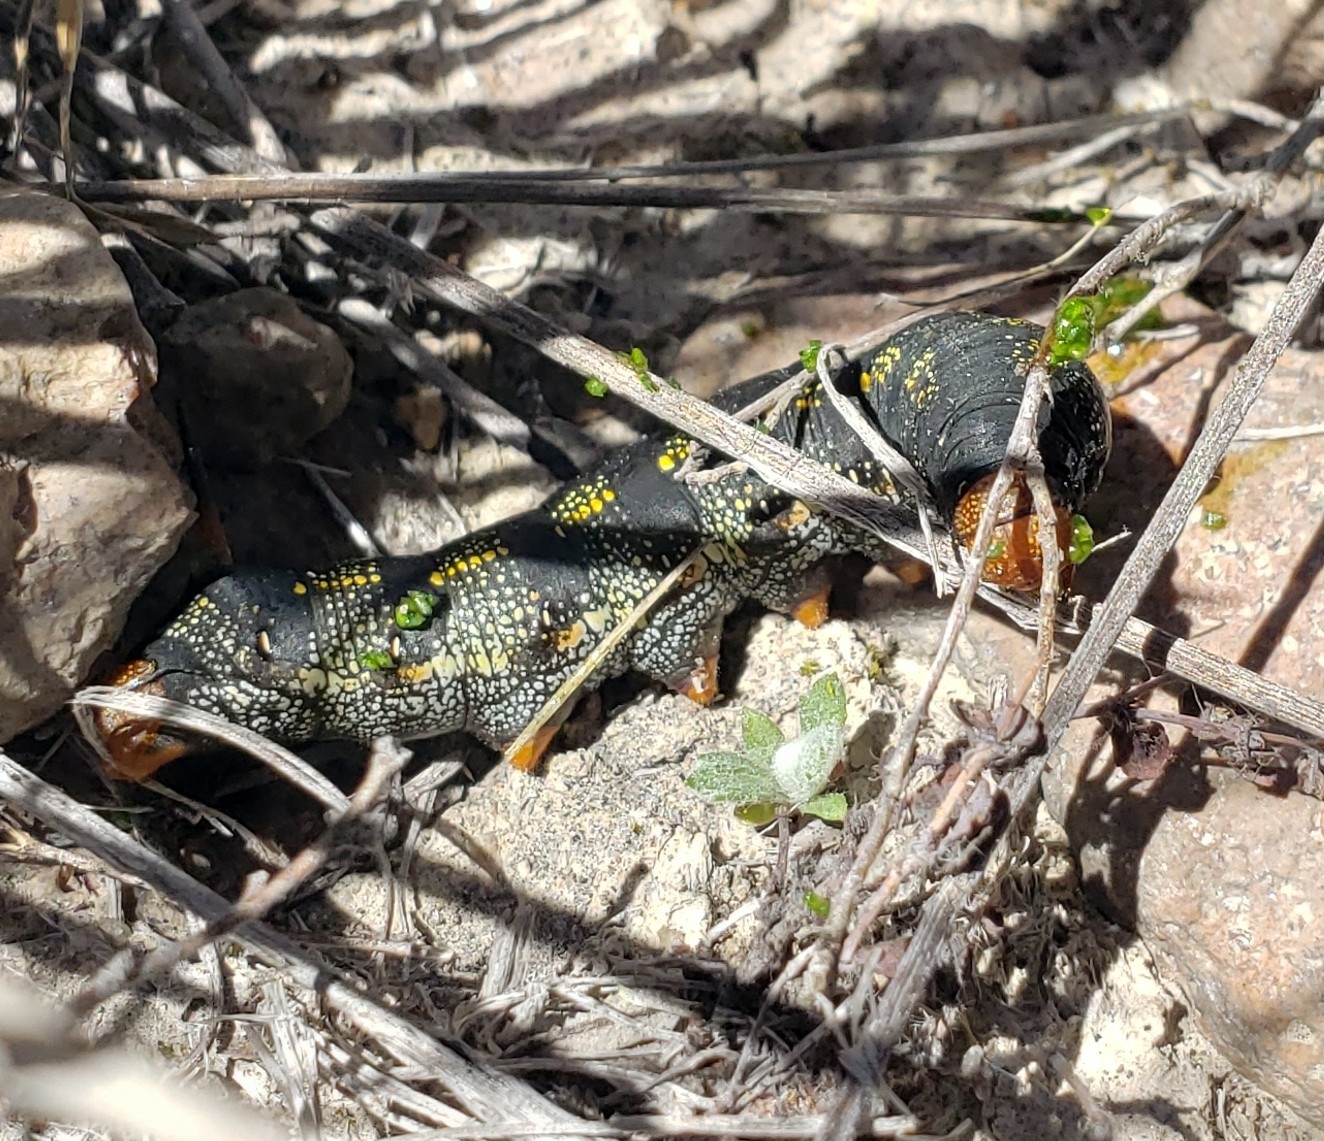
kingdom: Animalia
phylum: Arthropoda
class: Insecta
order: Lepidoptera
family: Sphingidae
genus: Hyles
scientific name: Hyles lineata
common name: White-lined sphinx
